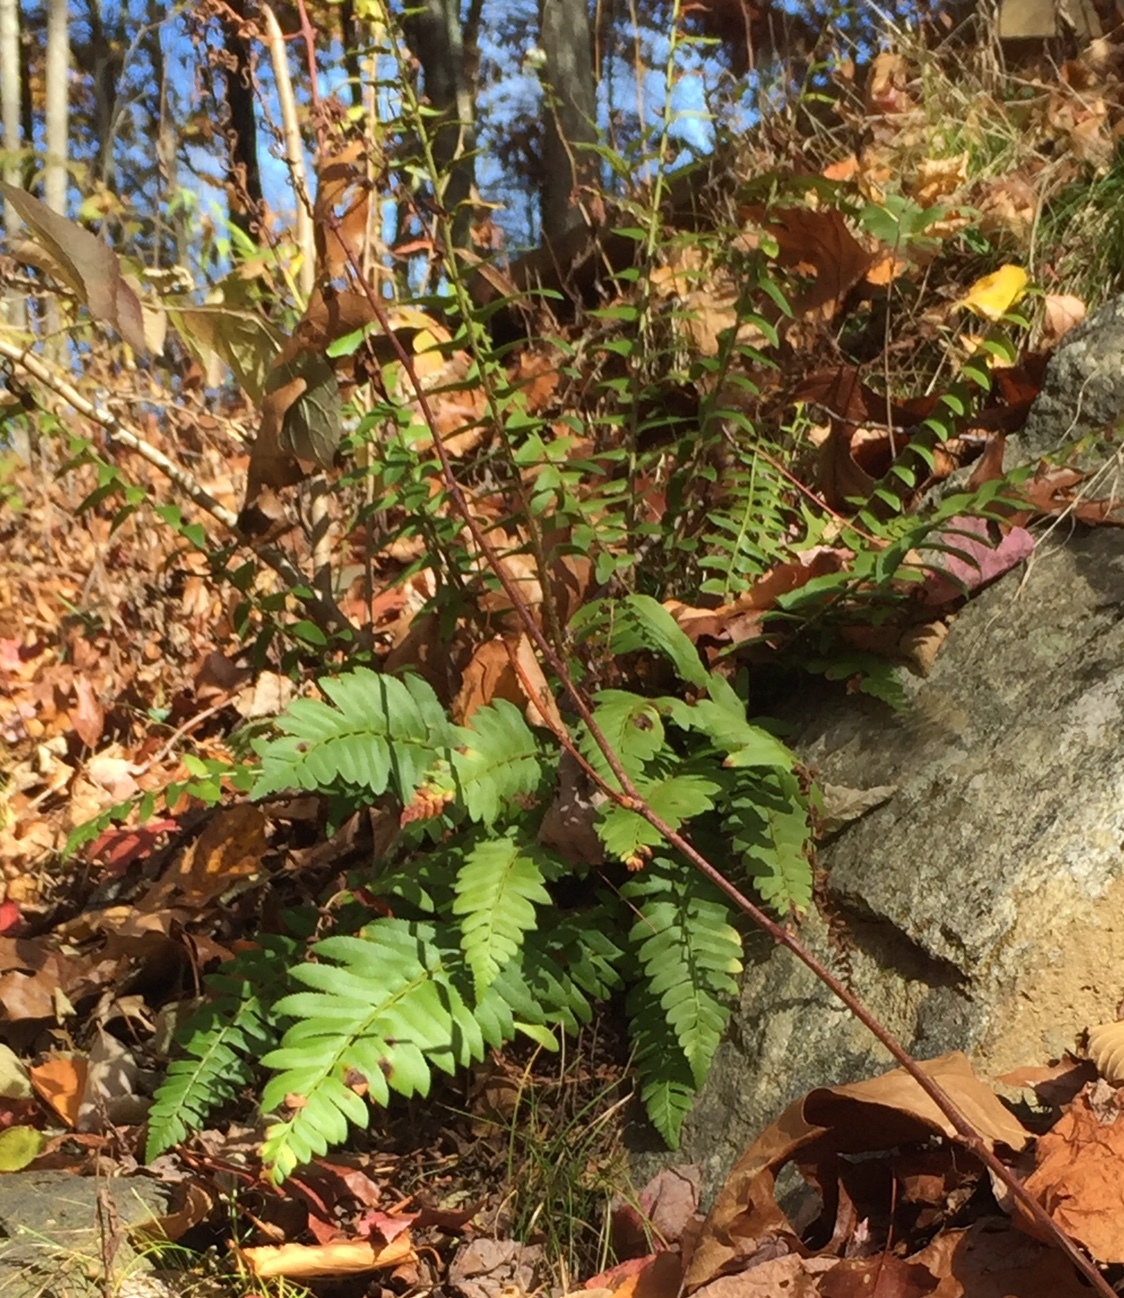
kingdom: Plantae
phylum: Tracheophyta
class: Polypodiopsida
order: Polypodiales
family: Dryopteridaceae
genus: Polystichum
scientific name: Polystichum acrostichoides
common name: Christmas fern
